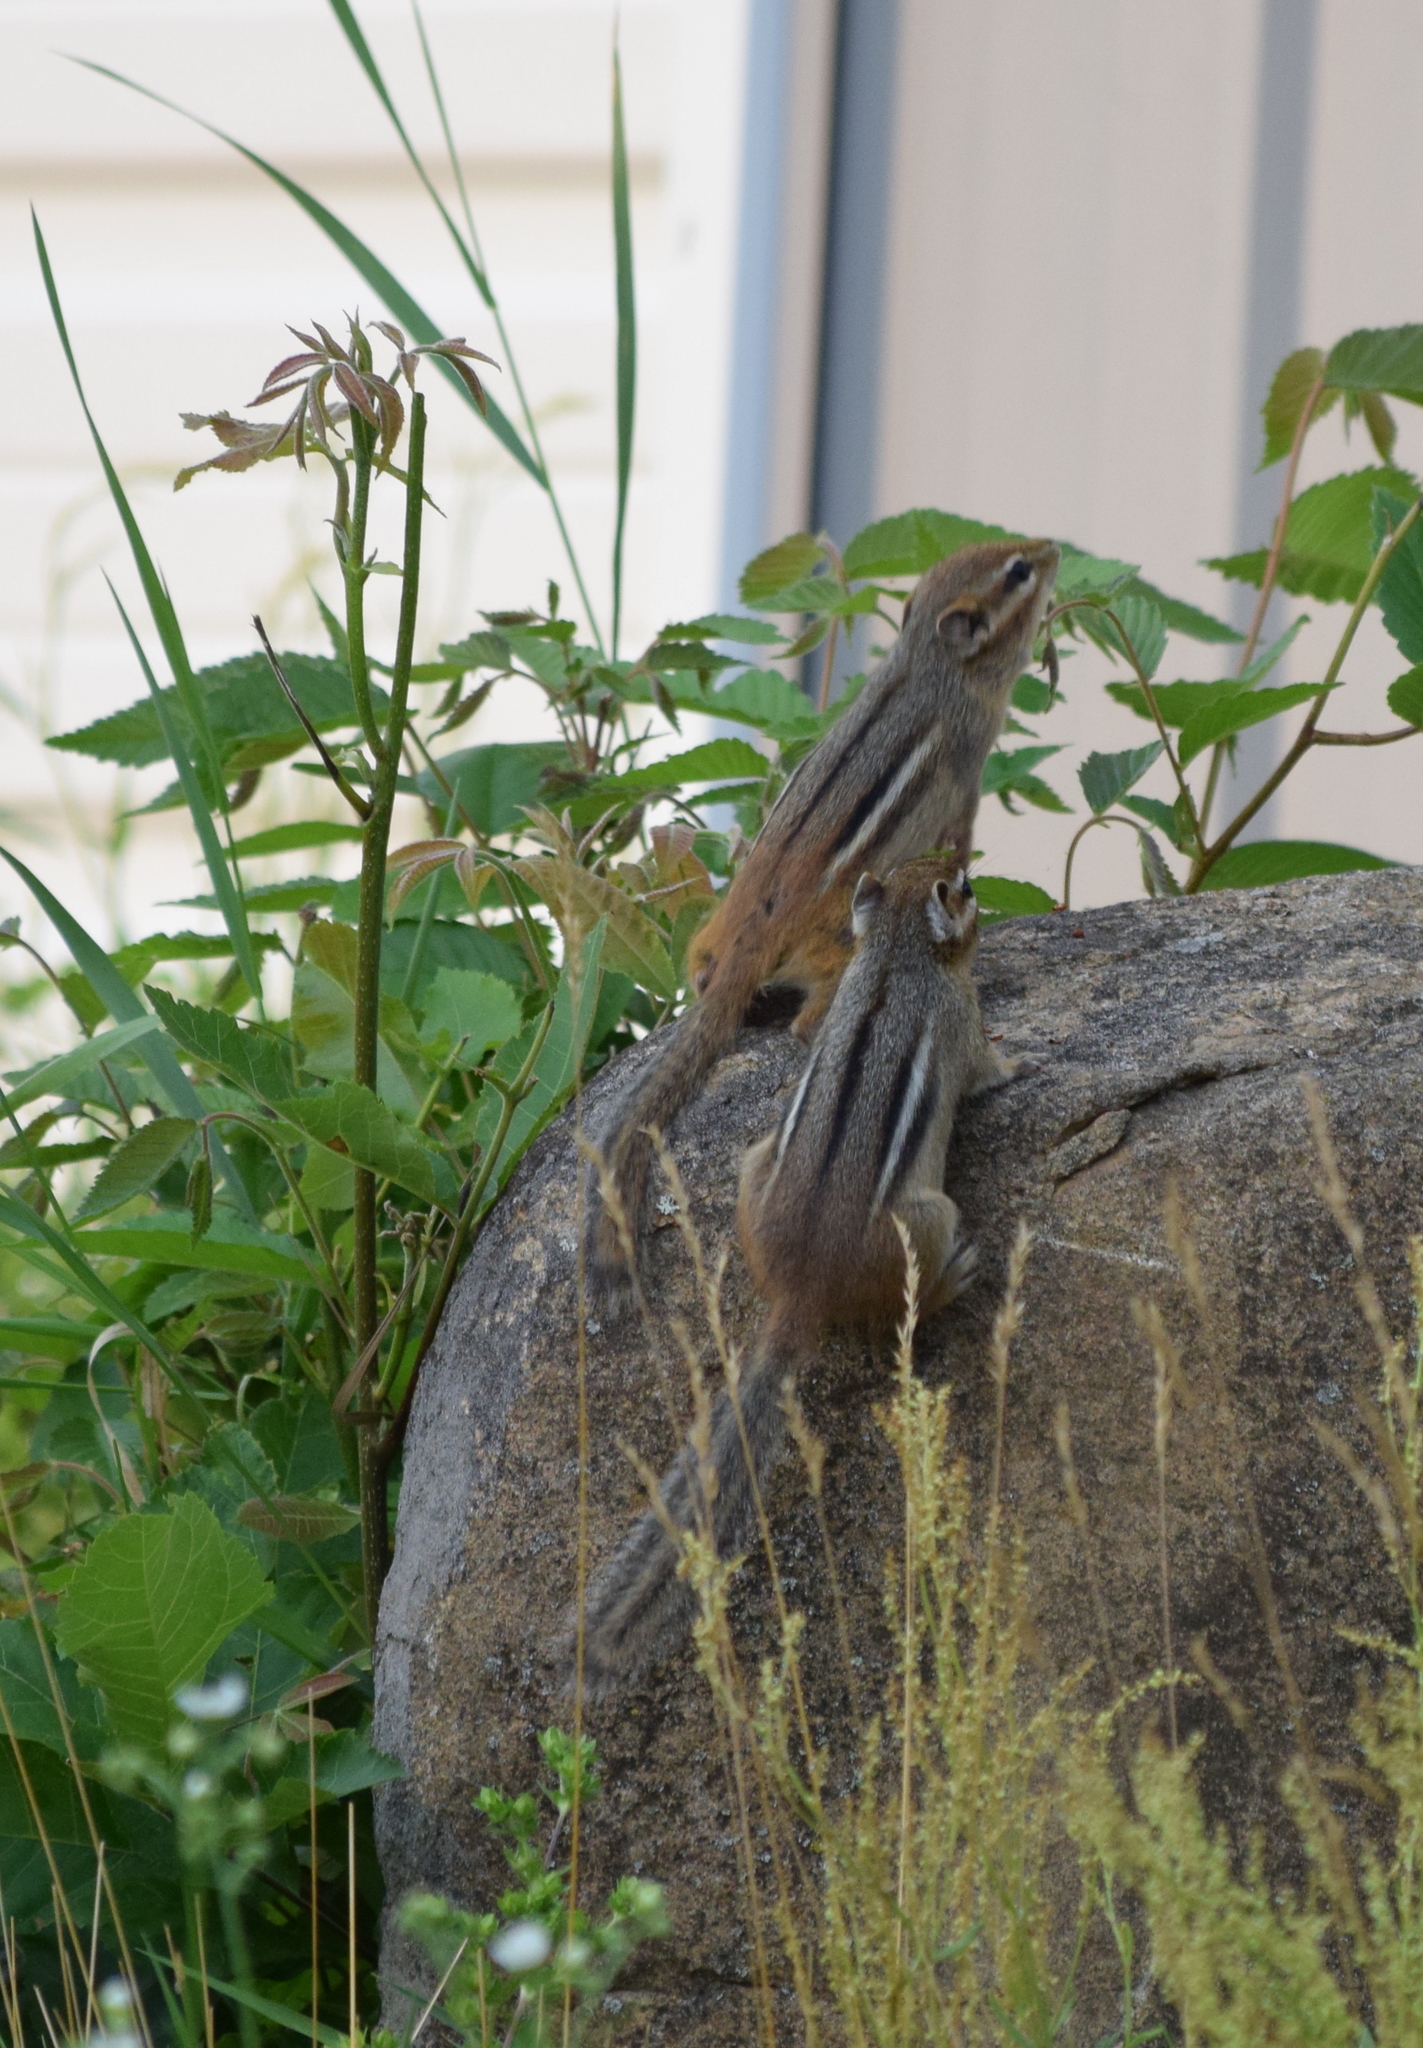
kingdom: Animalia
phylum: Chordata
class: Mammalia
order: Rodentia
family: Sciuridae
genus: Tamias
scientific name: Tamias striatus
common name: Eastern chipmunk
